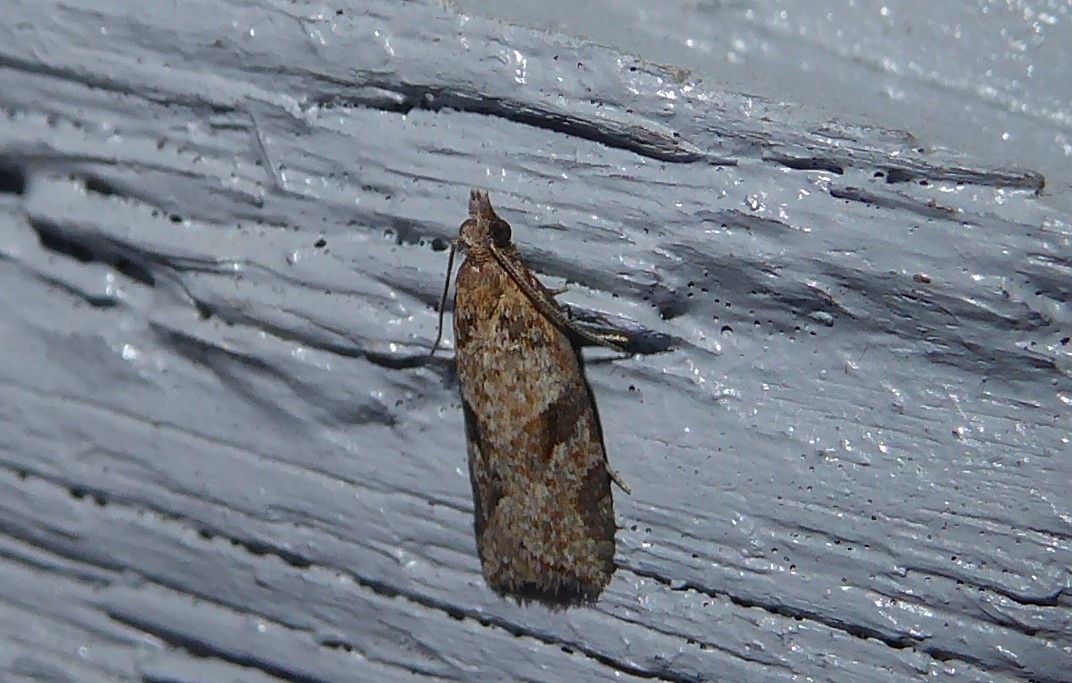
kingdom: Animalia
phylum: Arthropoda
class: Insecta
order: Lepidoptera
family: Tortricidae
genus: Capua
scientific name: Capua semiferana
